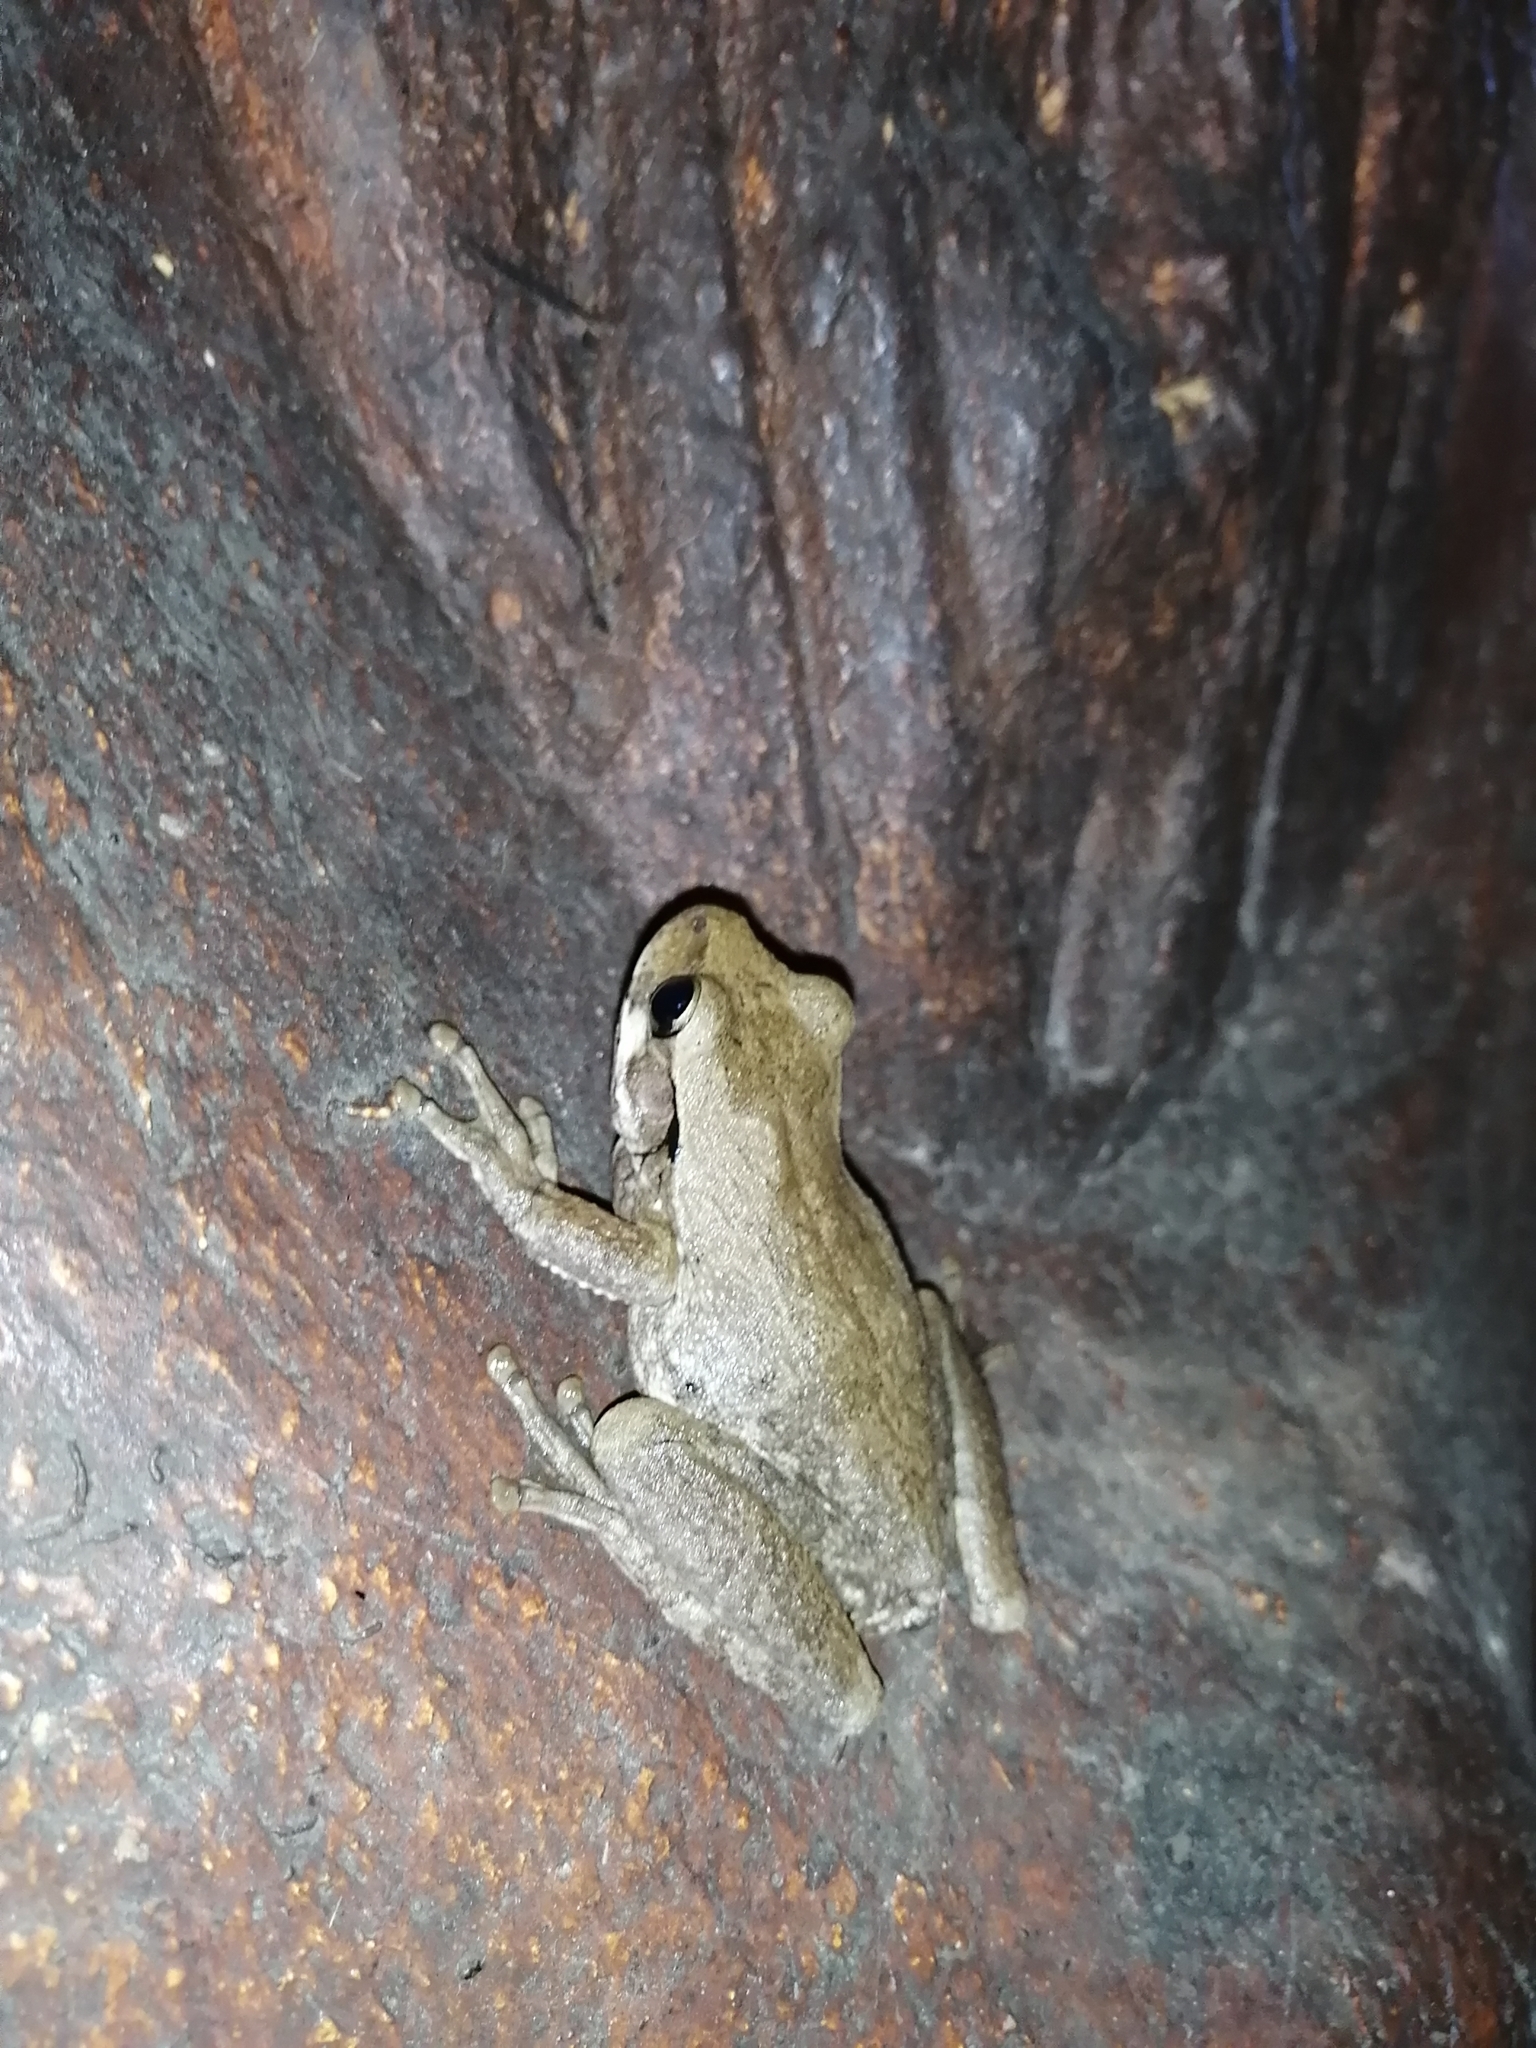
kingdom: Animalia
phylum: Chordata
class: Amphibia
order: Anura
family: Hylidae
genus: Smilisca
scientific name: Smilisca baudinii
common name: Mexican smilisca
